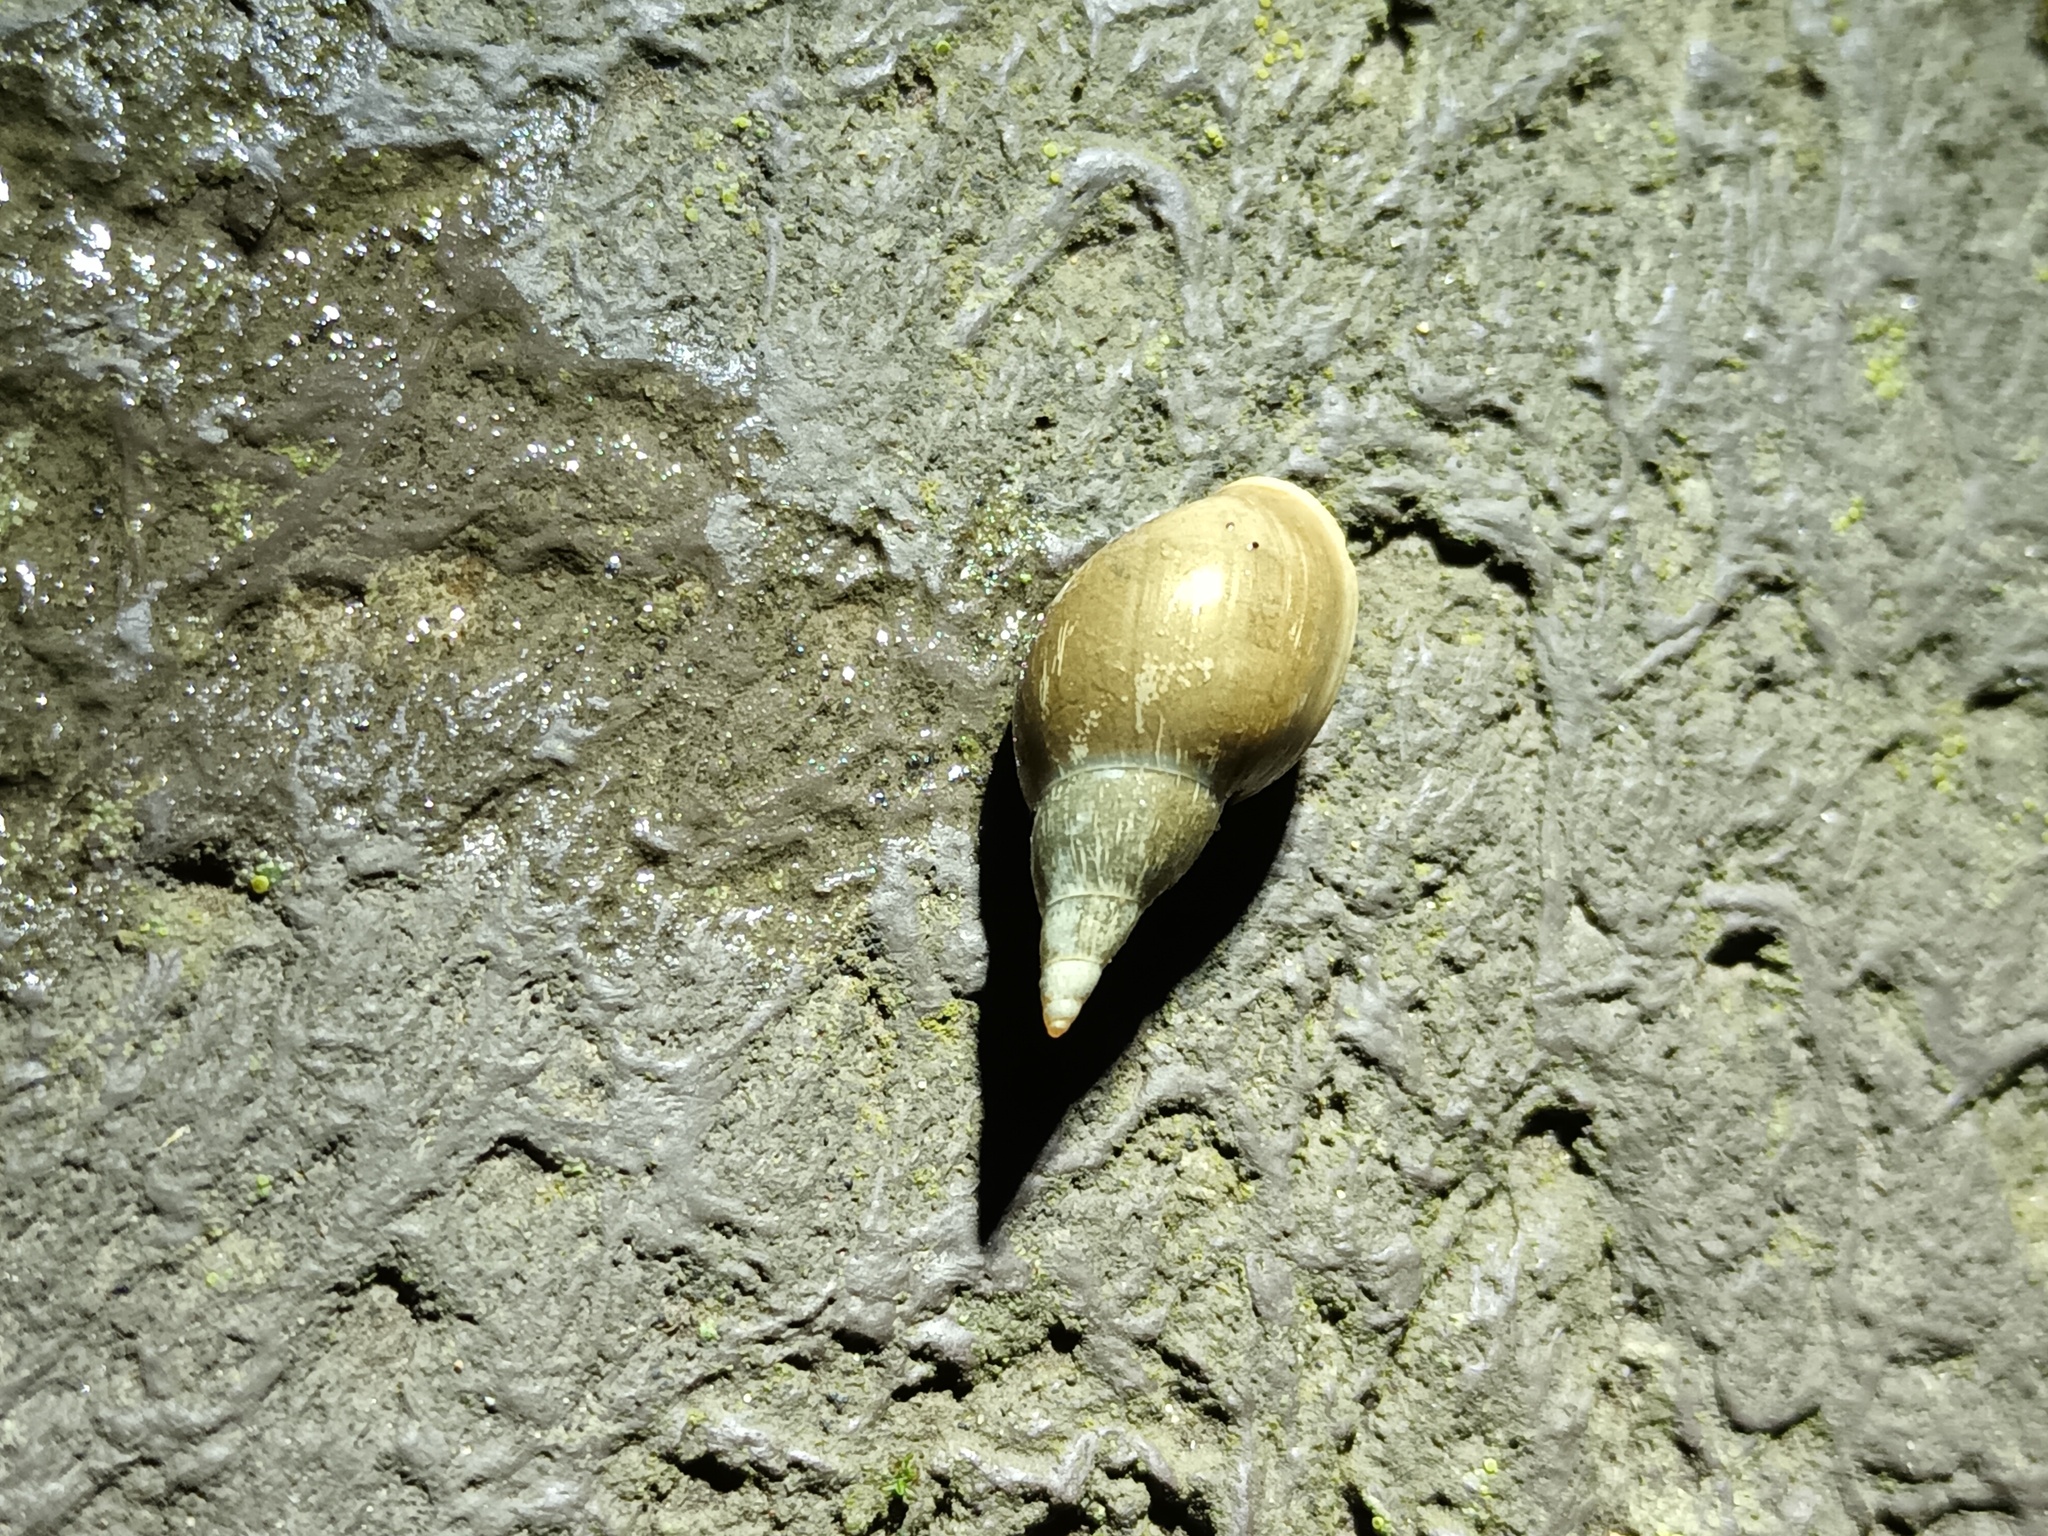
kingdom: Animalia
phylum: Mollusca
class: Gastropoda
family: Lymnaeidae
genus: Lymnaea
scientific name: Lymnaea stagnalis
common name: Great pond snail
